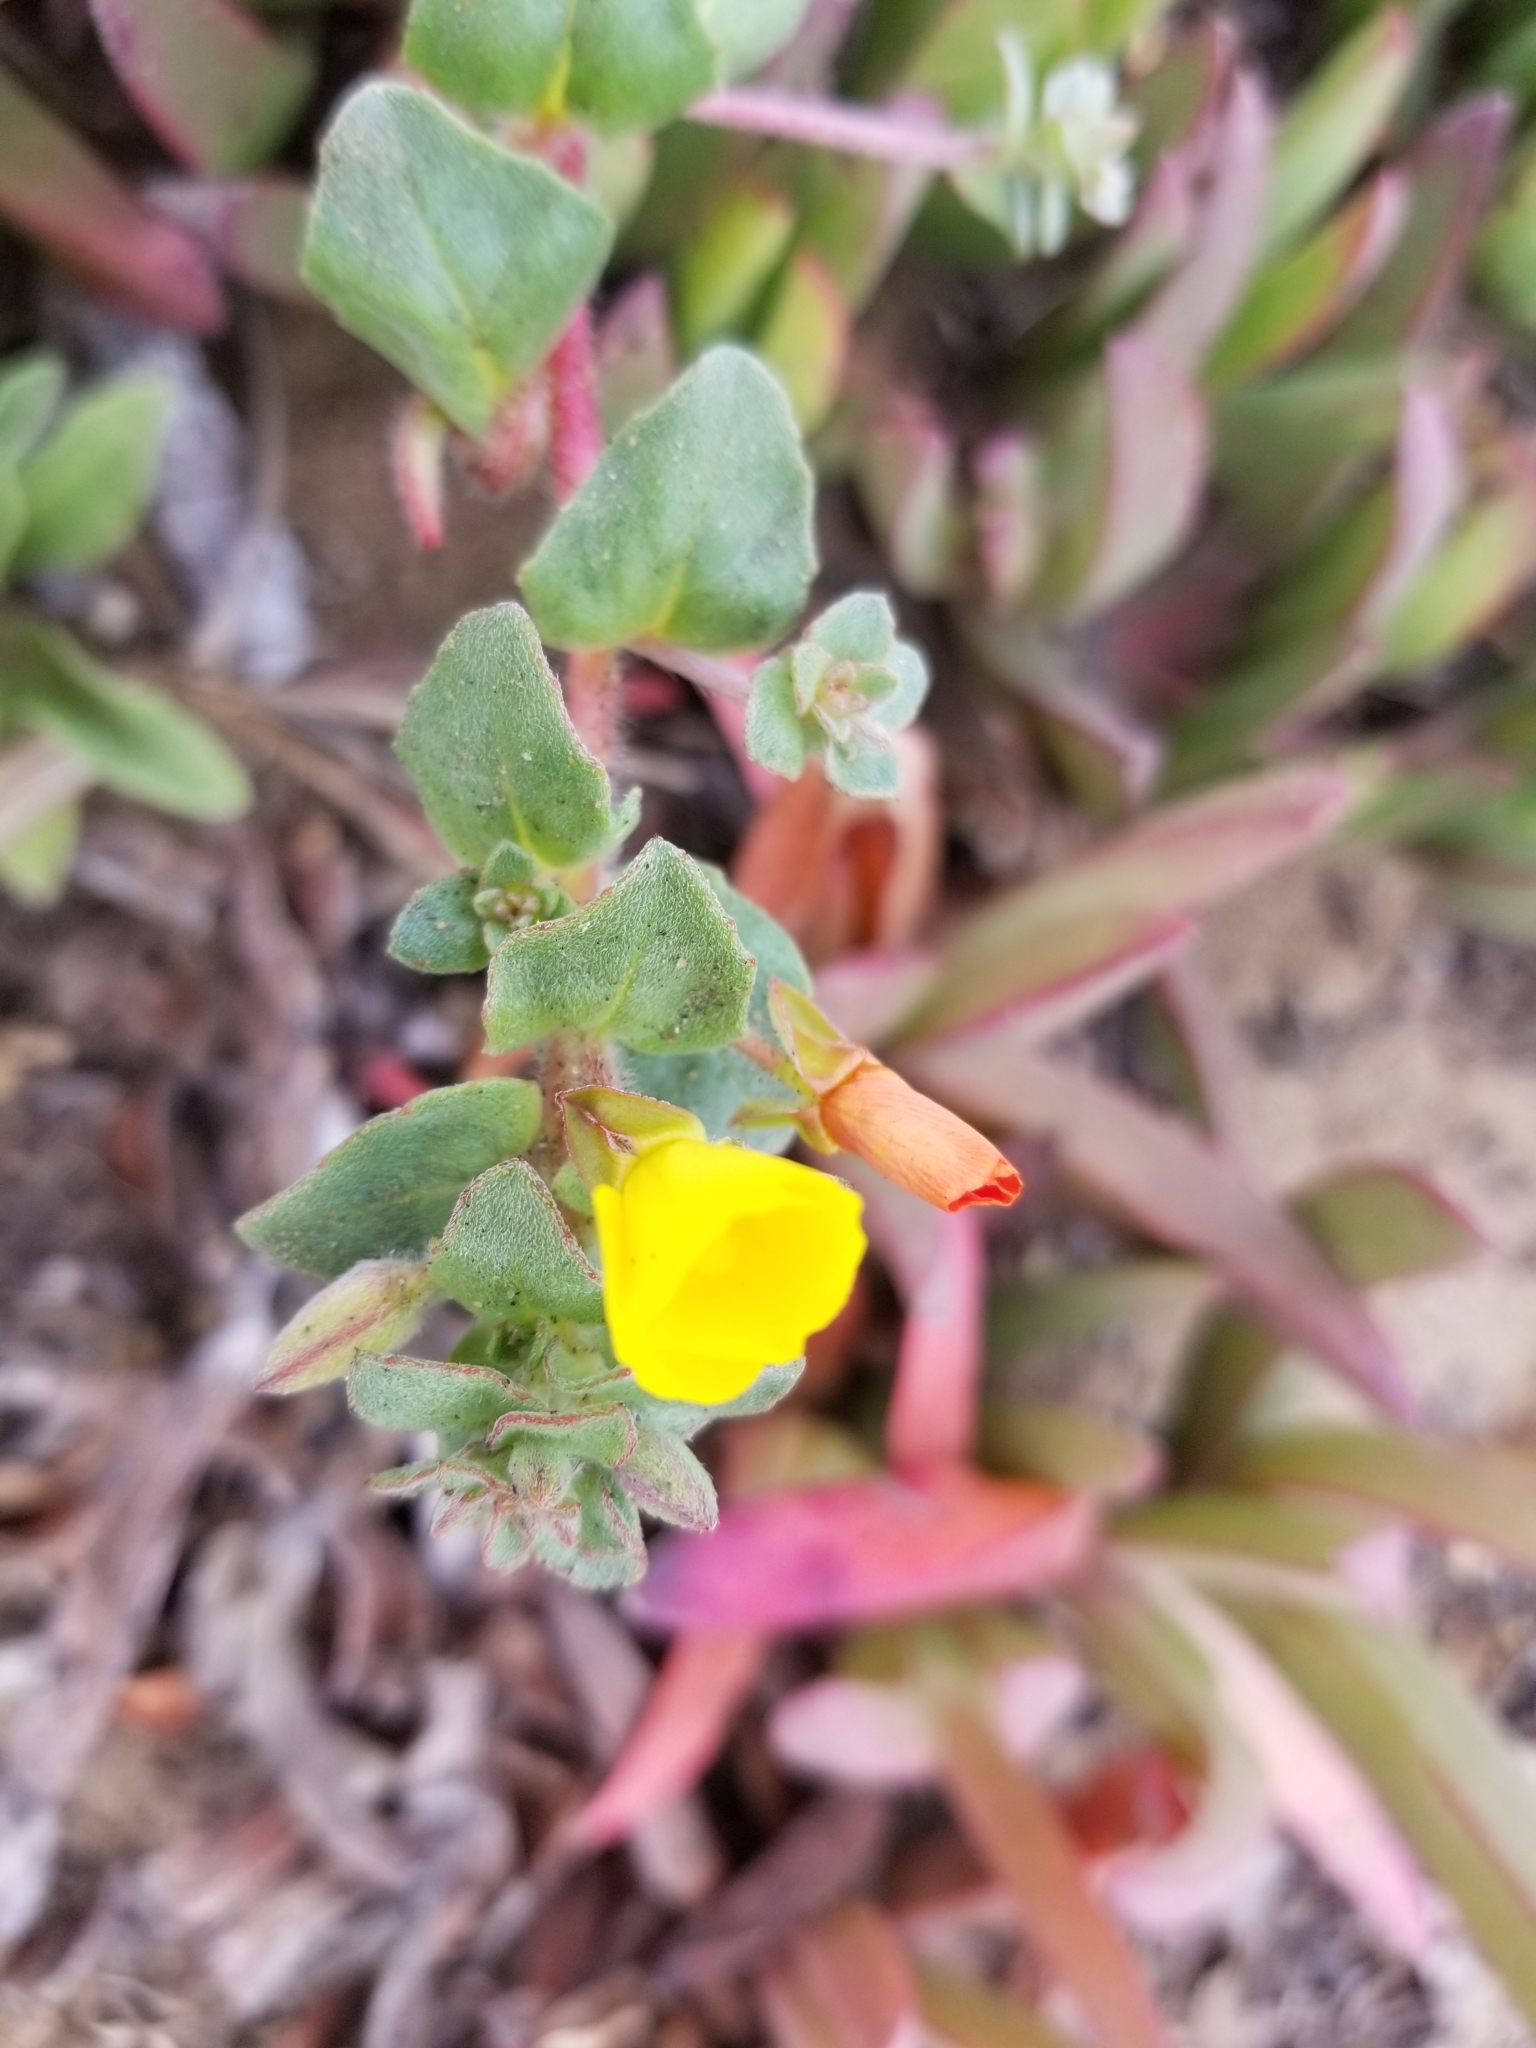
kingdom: Plantae
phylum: Tracheophyta
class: Magnoliopsida
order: Myrtales
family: Onagraceae
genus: Camissoniopsis
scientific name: Camissoniopsis cheiranthifolia
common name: Beach suncup
